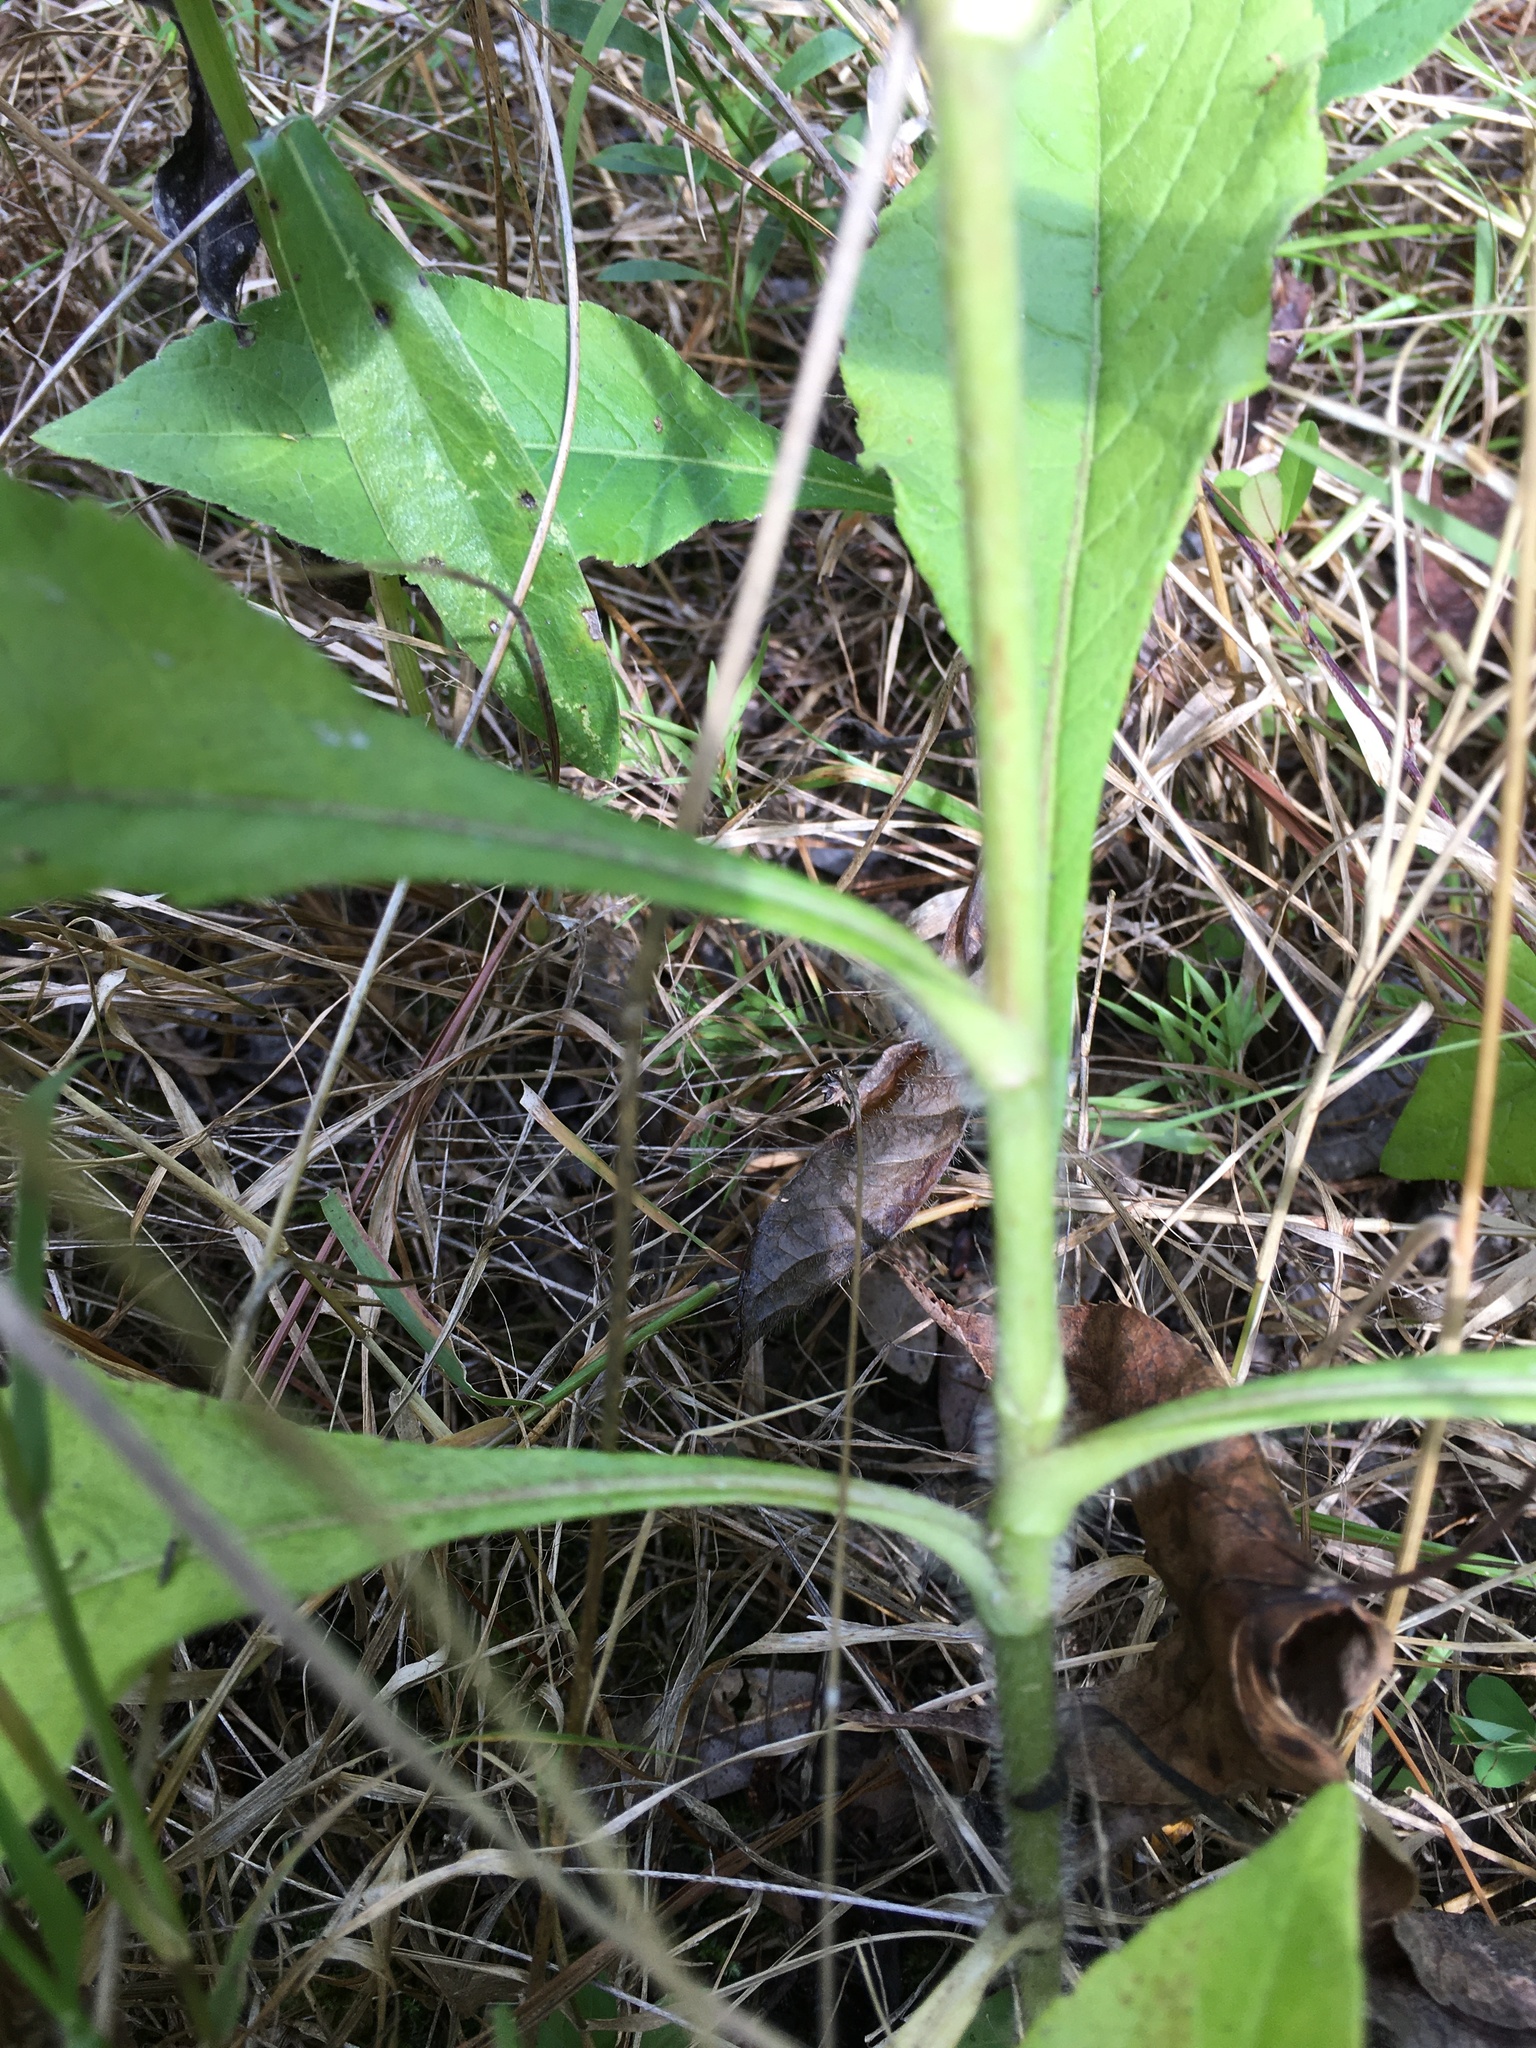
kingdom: Plantae
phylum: Tracheophyta
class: Magnoliopsida
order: Asterales
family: Asteraceae
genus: Elephantopus
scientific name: Elephantopus carolinianus
